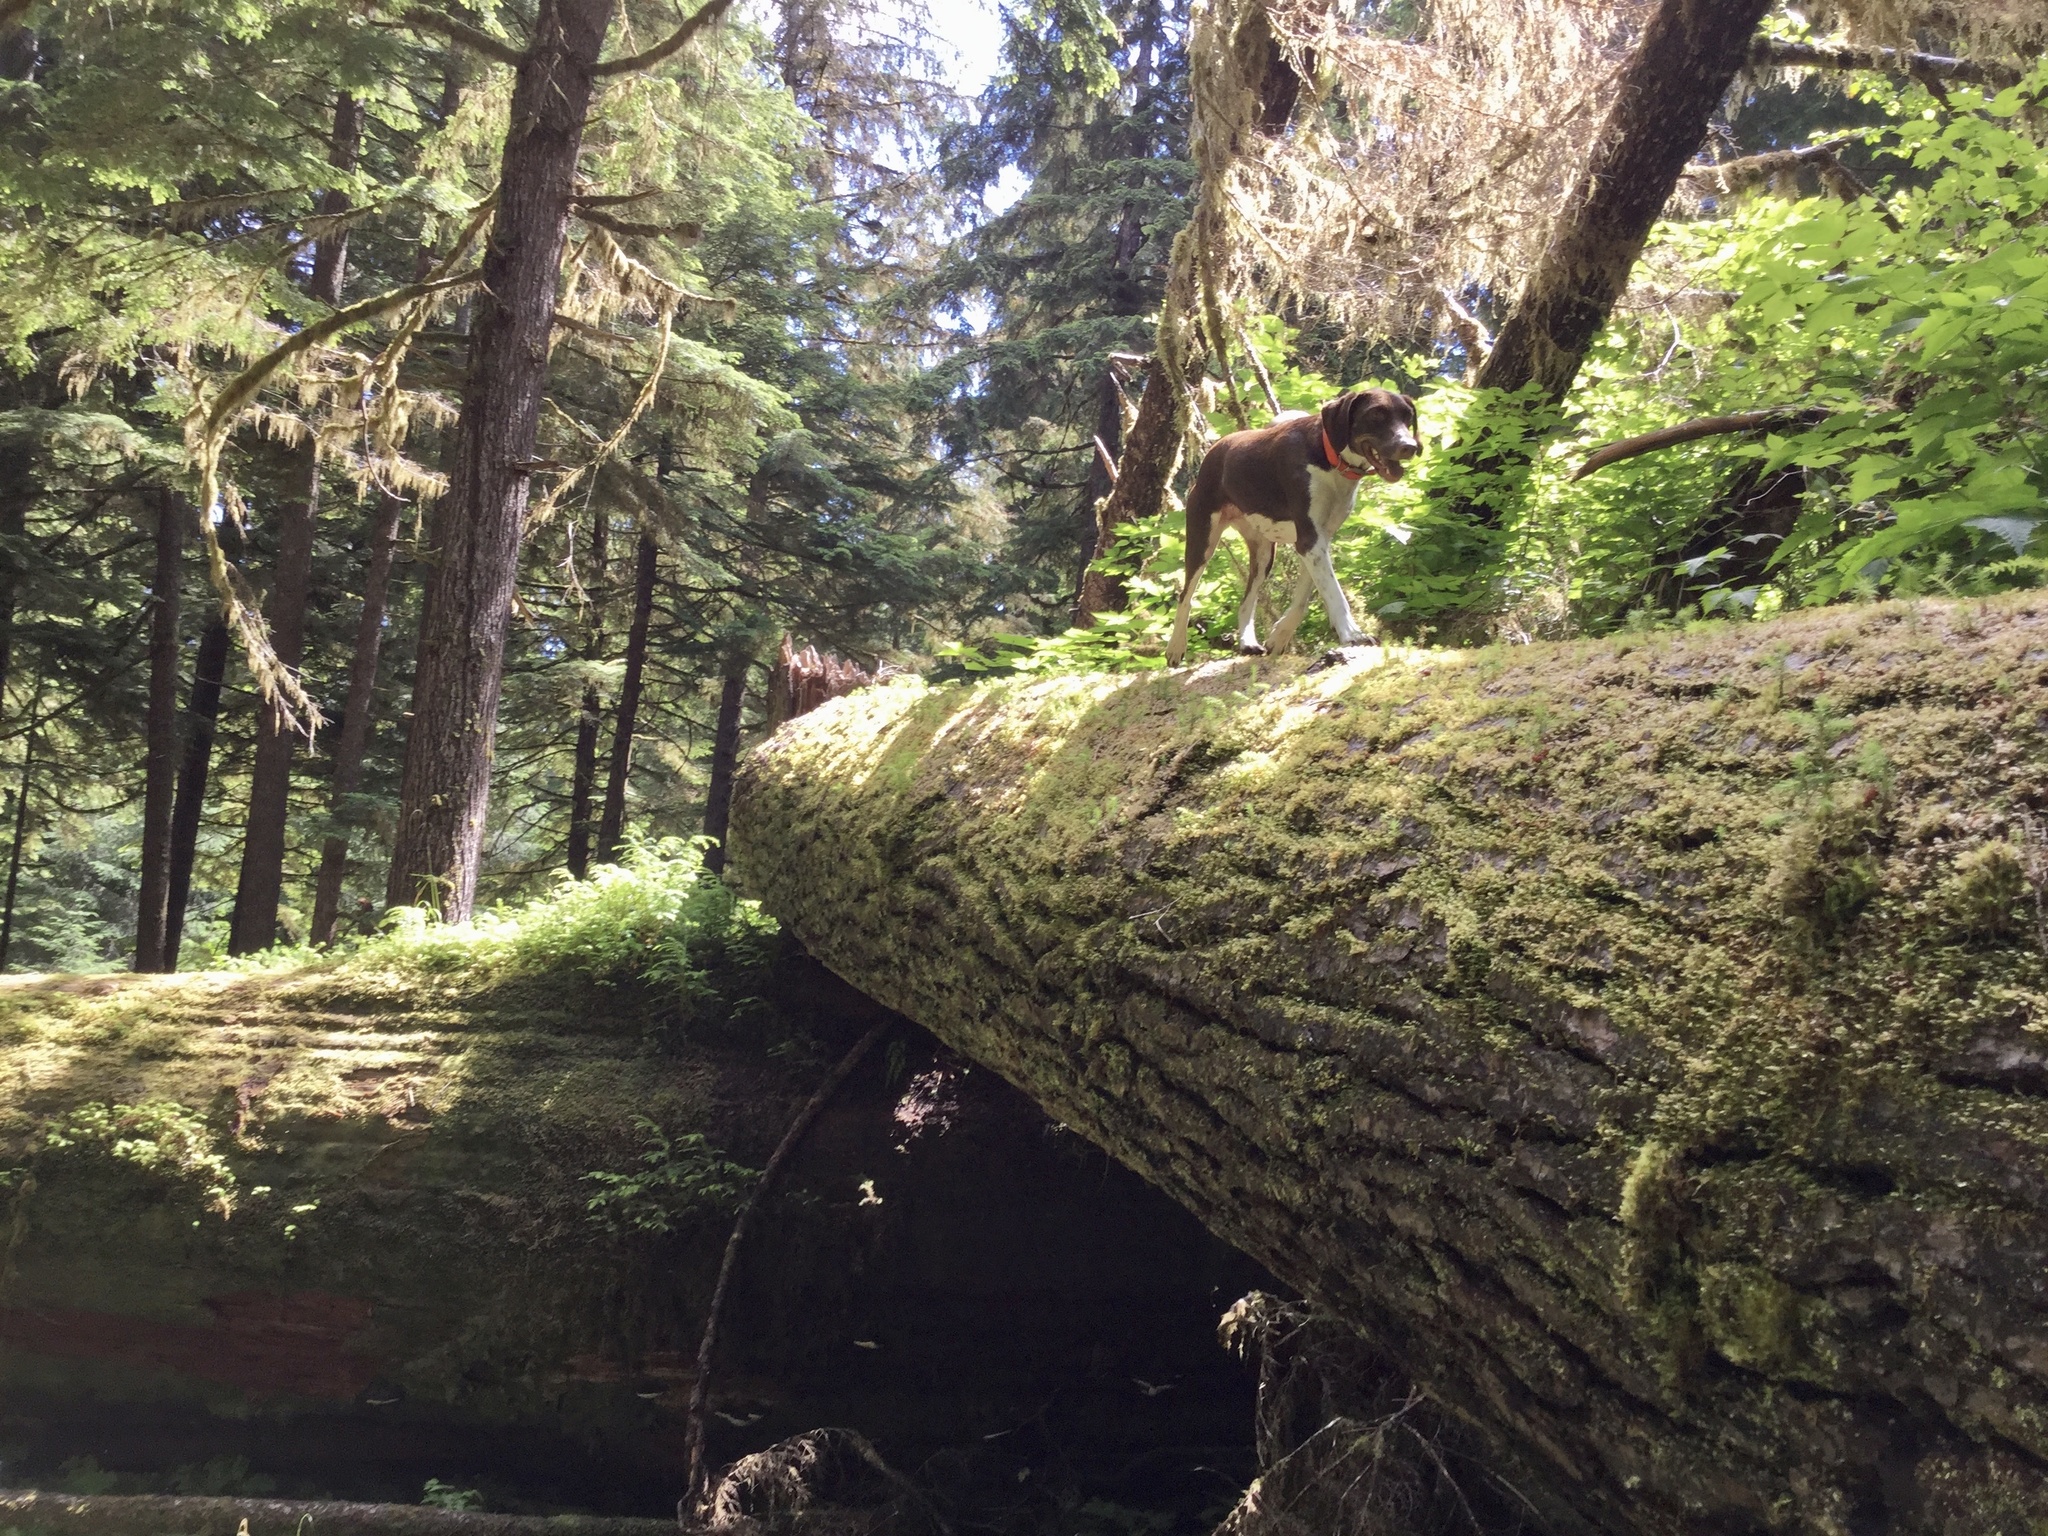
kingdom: Plantae
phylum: Tracheophyta
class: Pinopsida
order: Pinales
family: Pinaceae
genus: Tsuga
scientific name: Tsuga heterophylla
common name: Western hemlock
